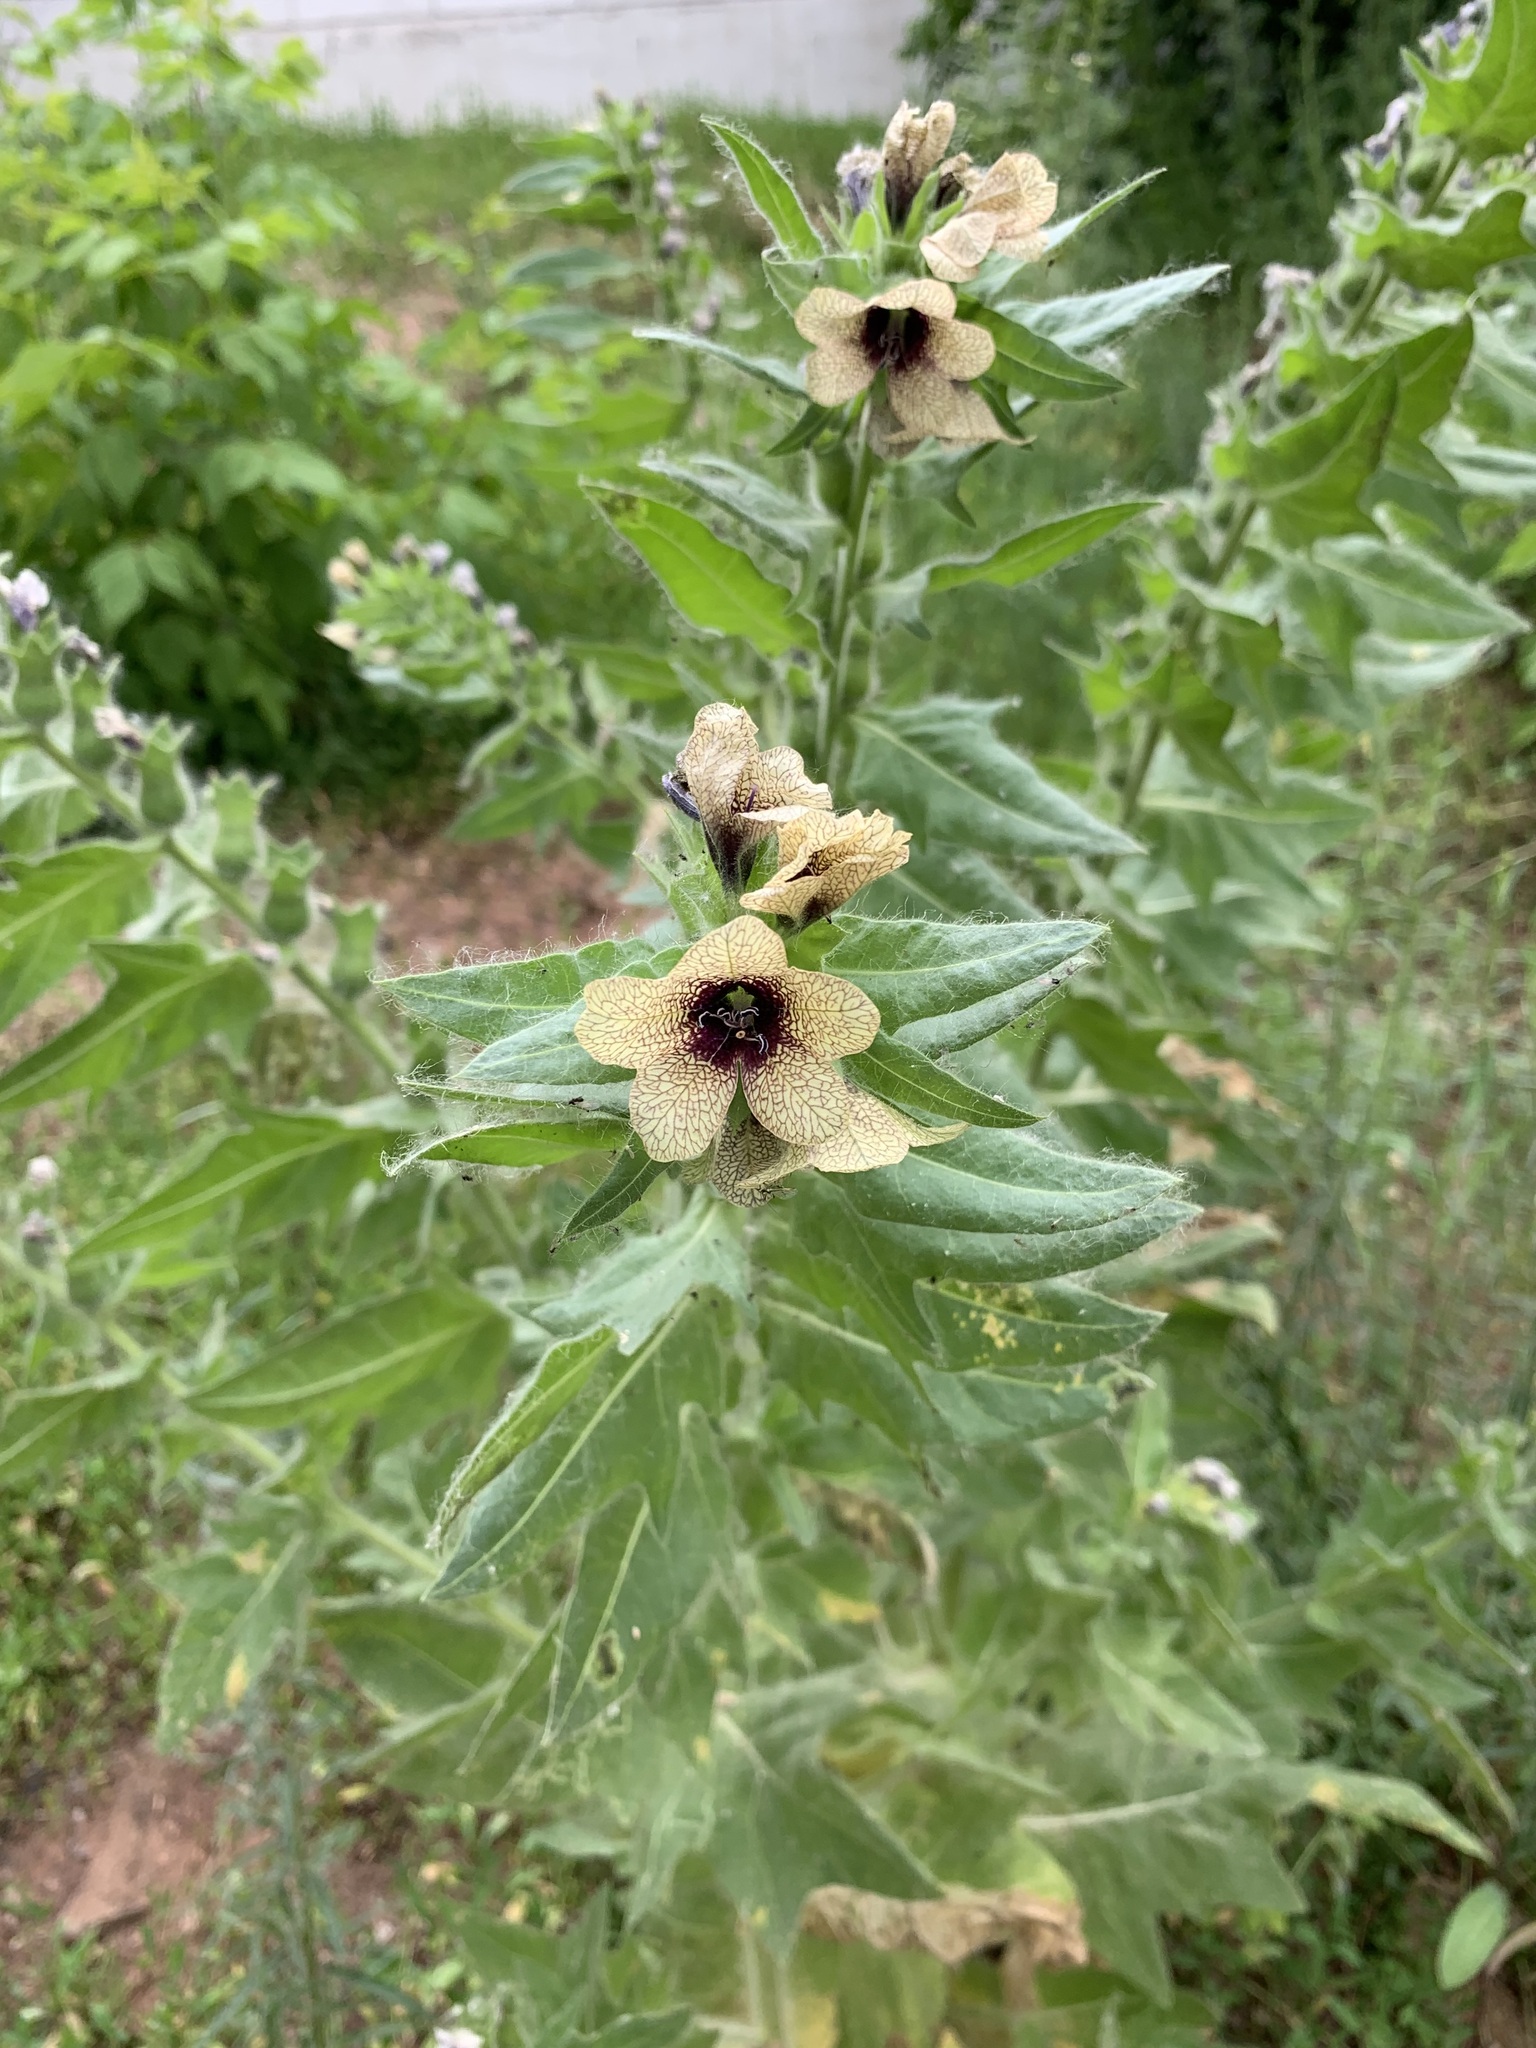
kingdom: Plantae
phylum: Tracheophyta
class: Magnoliopsida
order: Solanales
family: Solanaceae
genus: Hyoscyamus
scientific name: Hyoscyamus niger
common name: Henbane
